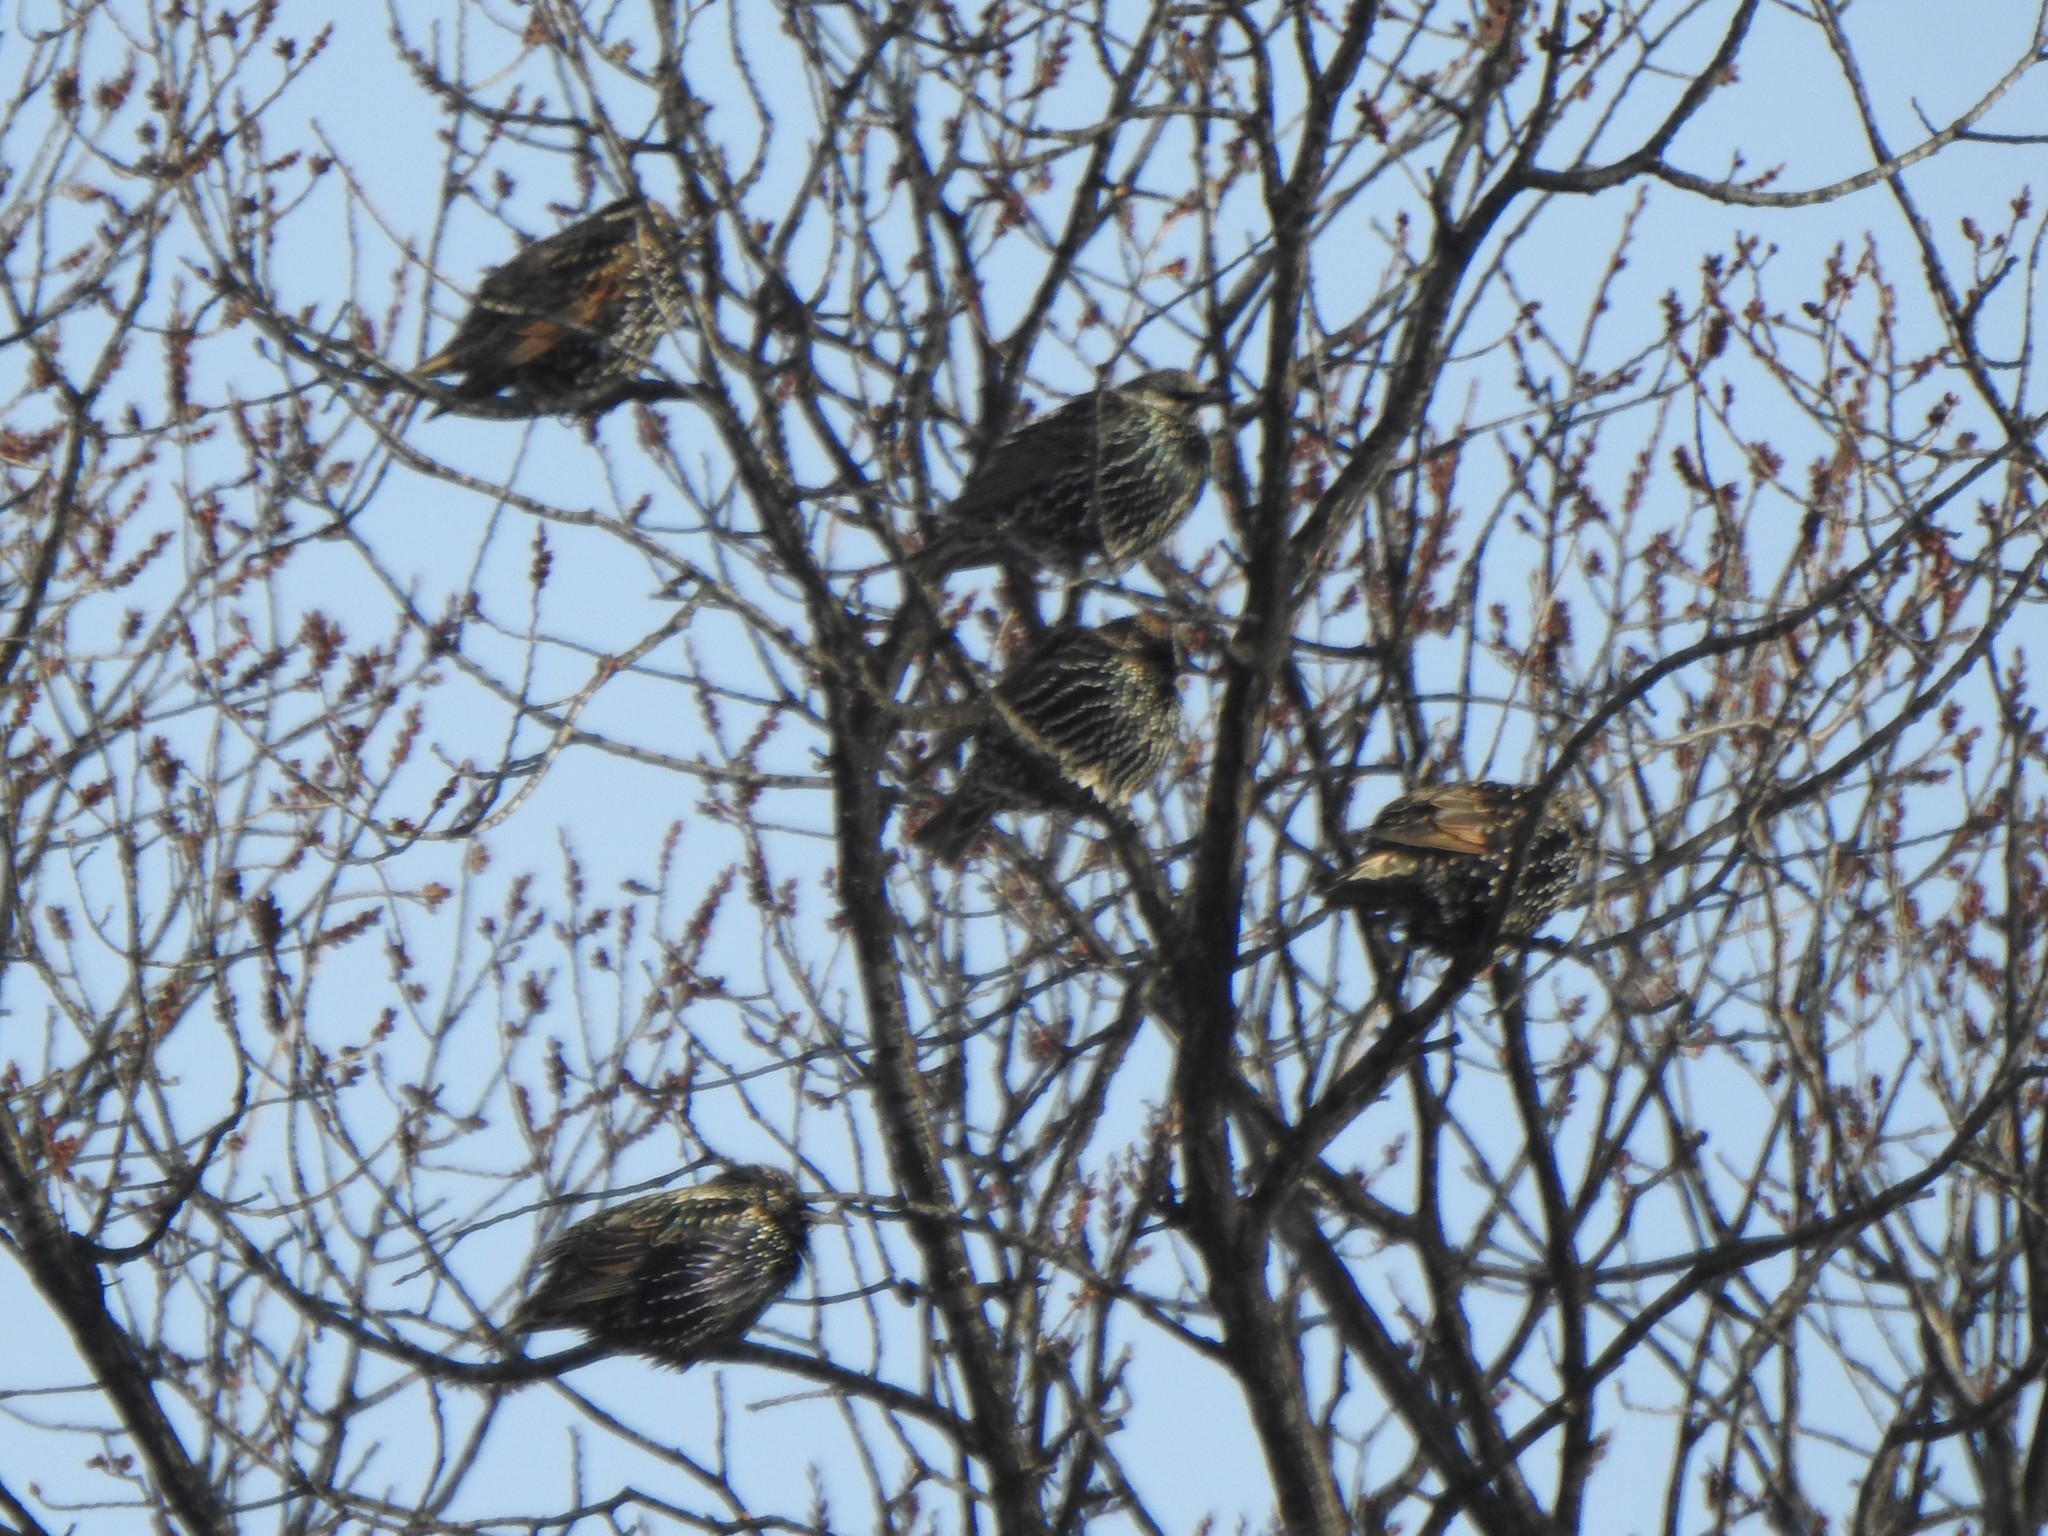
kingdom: Animalia
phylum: Chordata
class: Aves
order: Passeriformes
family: Sturnidae
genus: Sturnus
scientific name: Sturnus vulgaris
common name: Common starling
